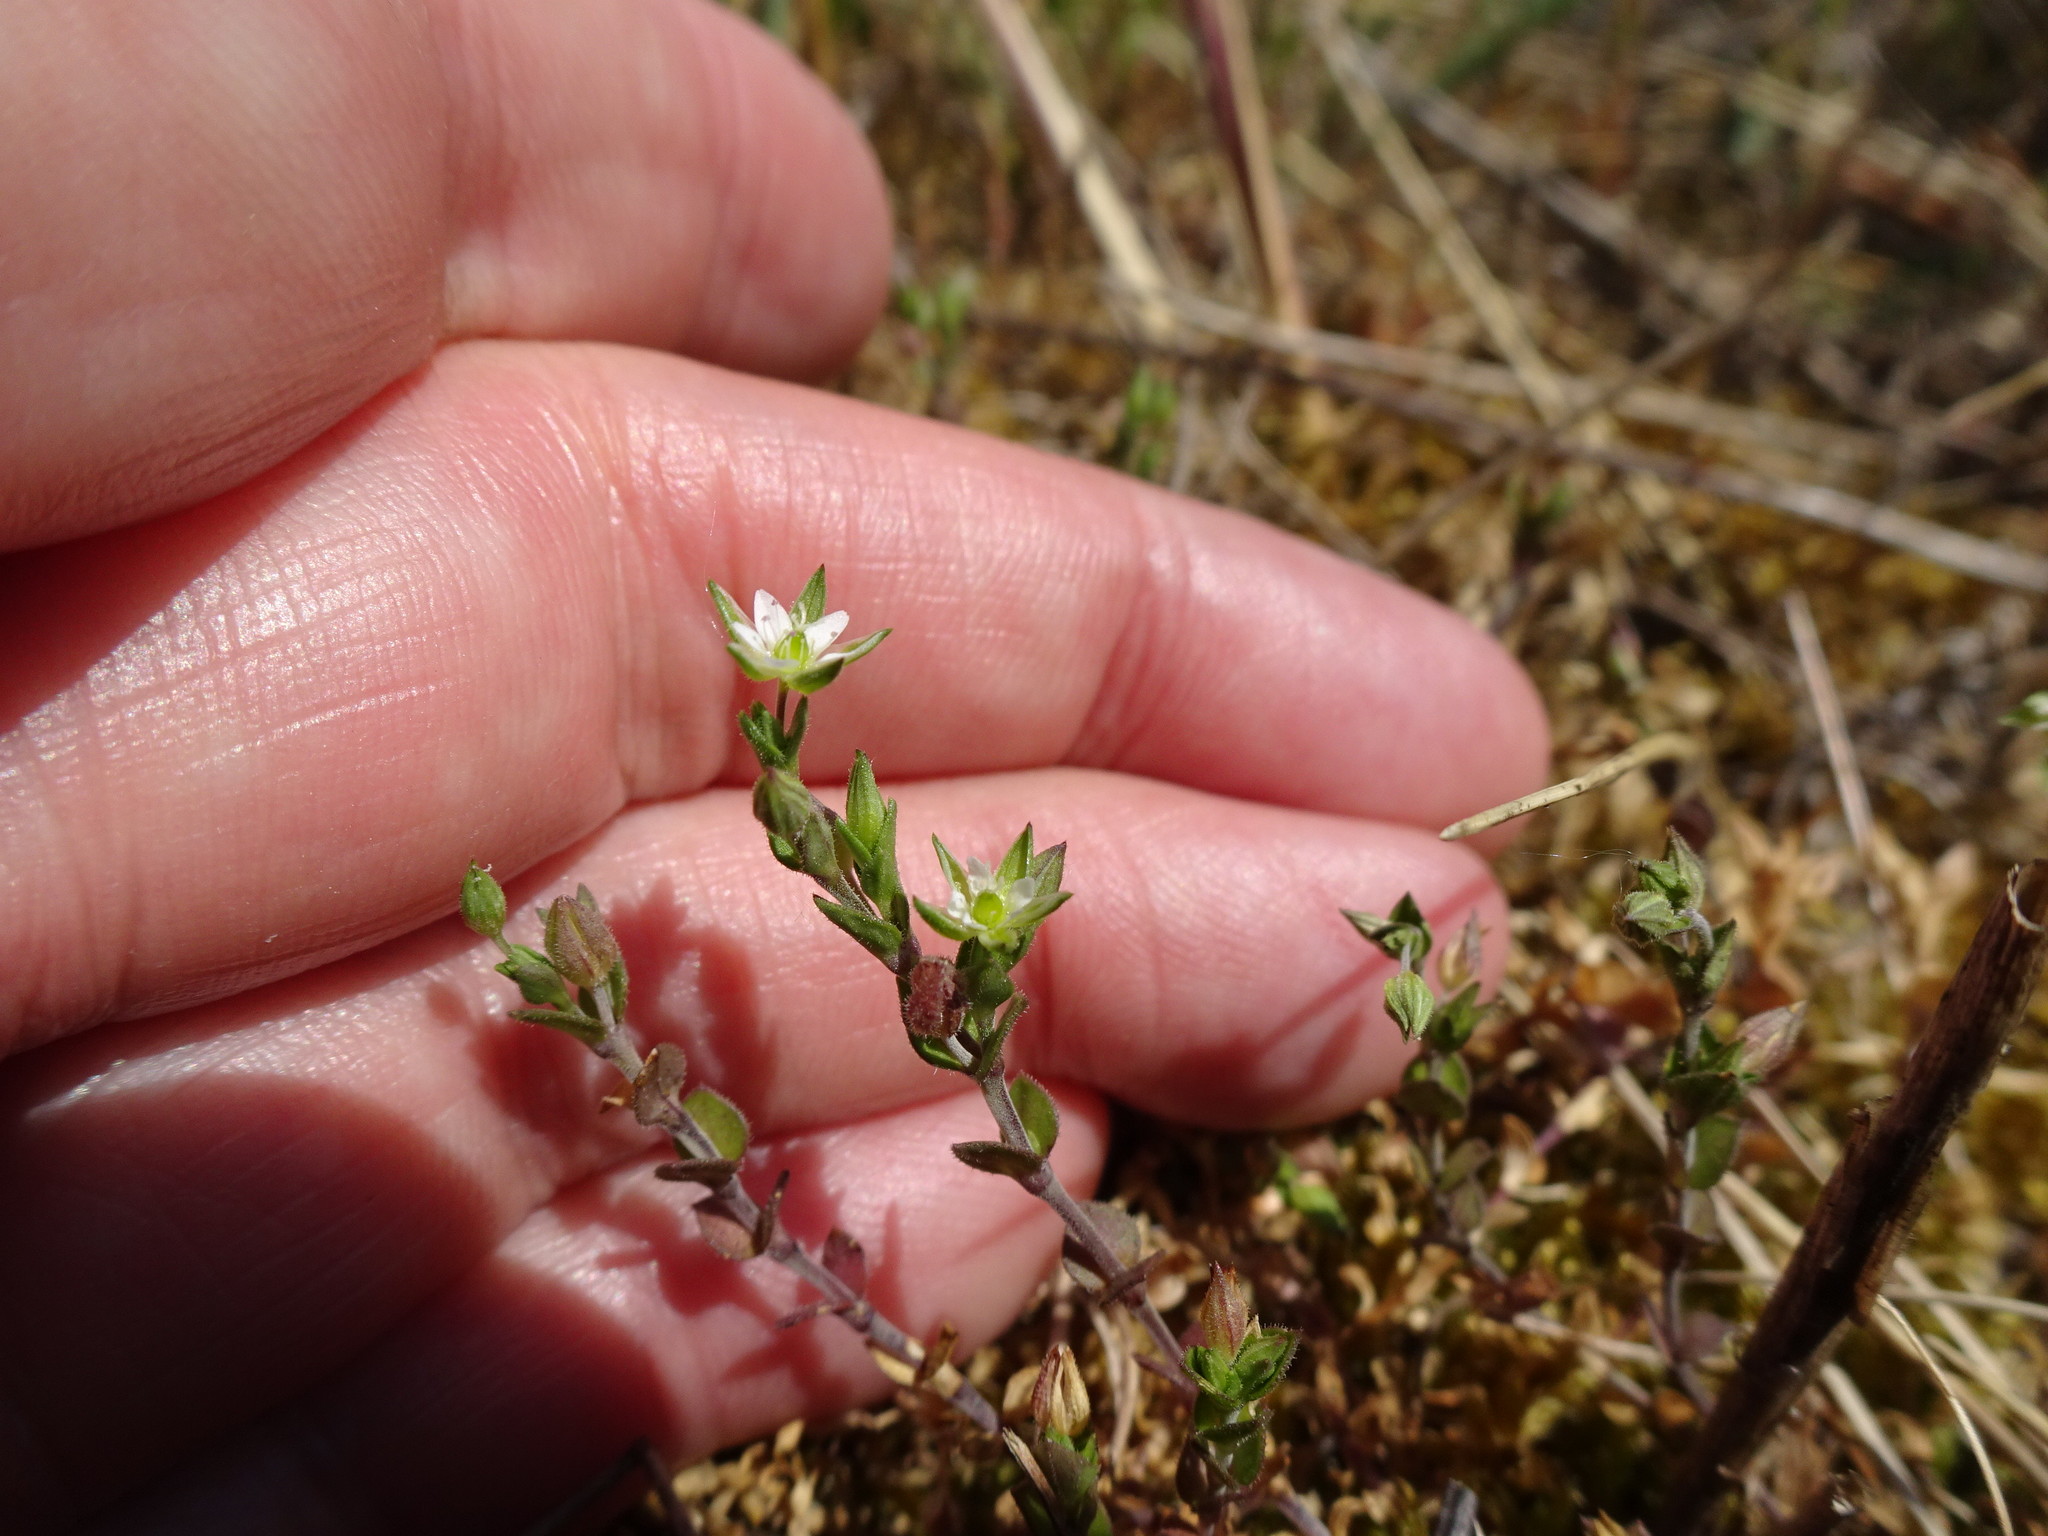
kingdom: Plantae
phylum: Tracheophyta
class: Magnoliopsida
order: Caryophyllales
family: Caryophyllaceae
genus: Arenaria
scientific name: Arenaria serpyllifolia
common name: Thyme-leaved sandwort
